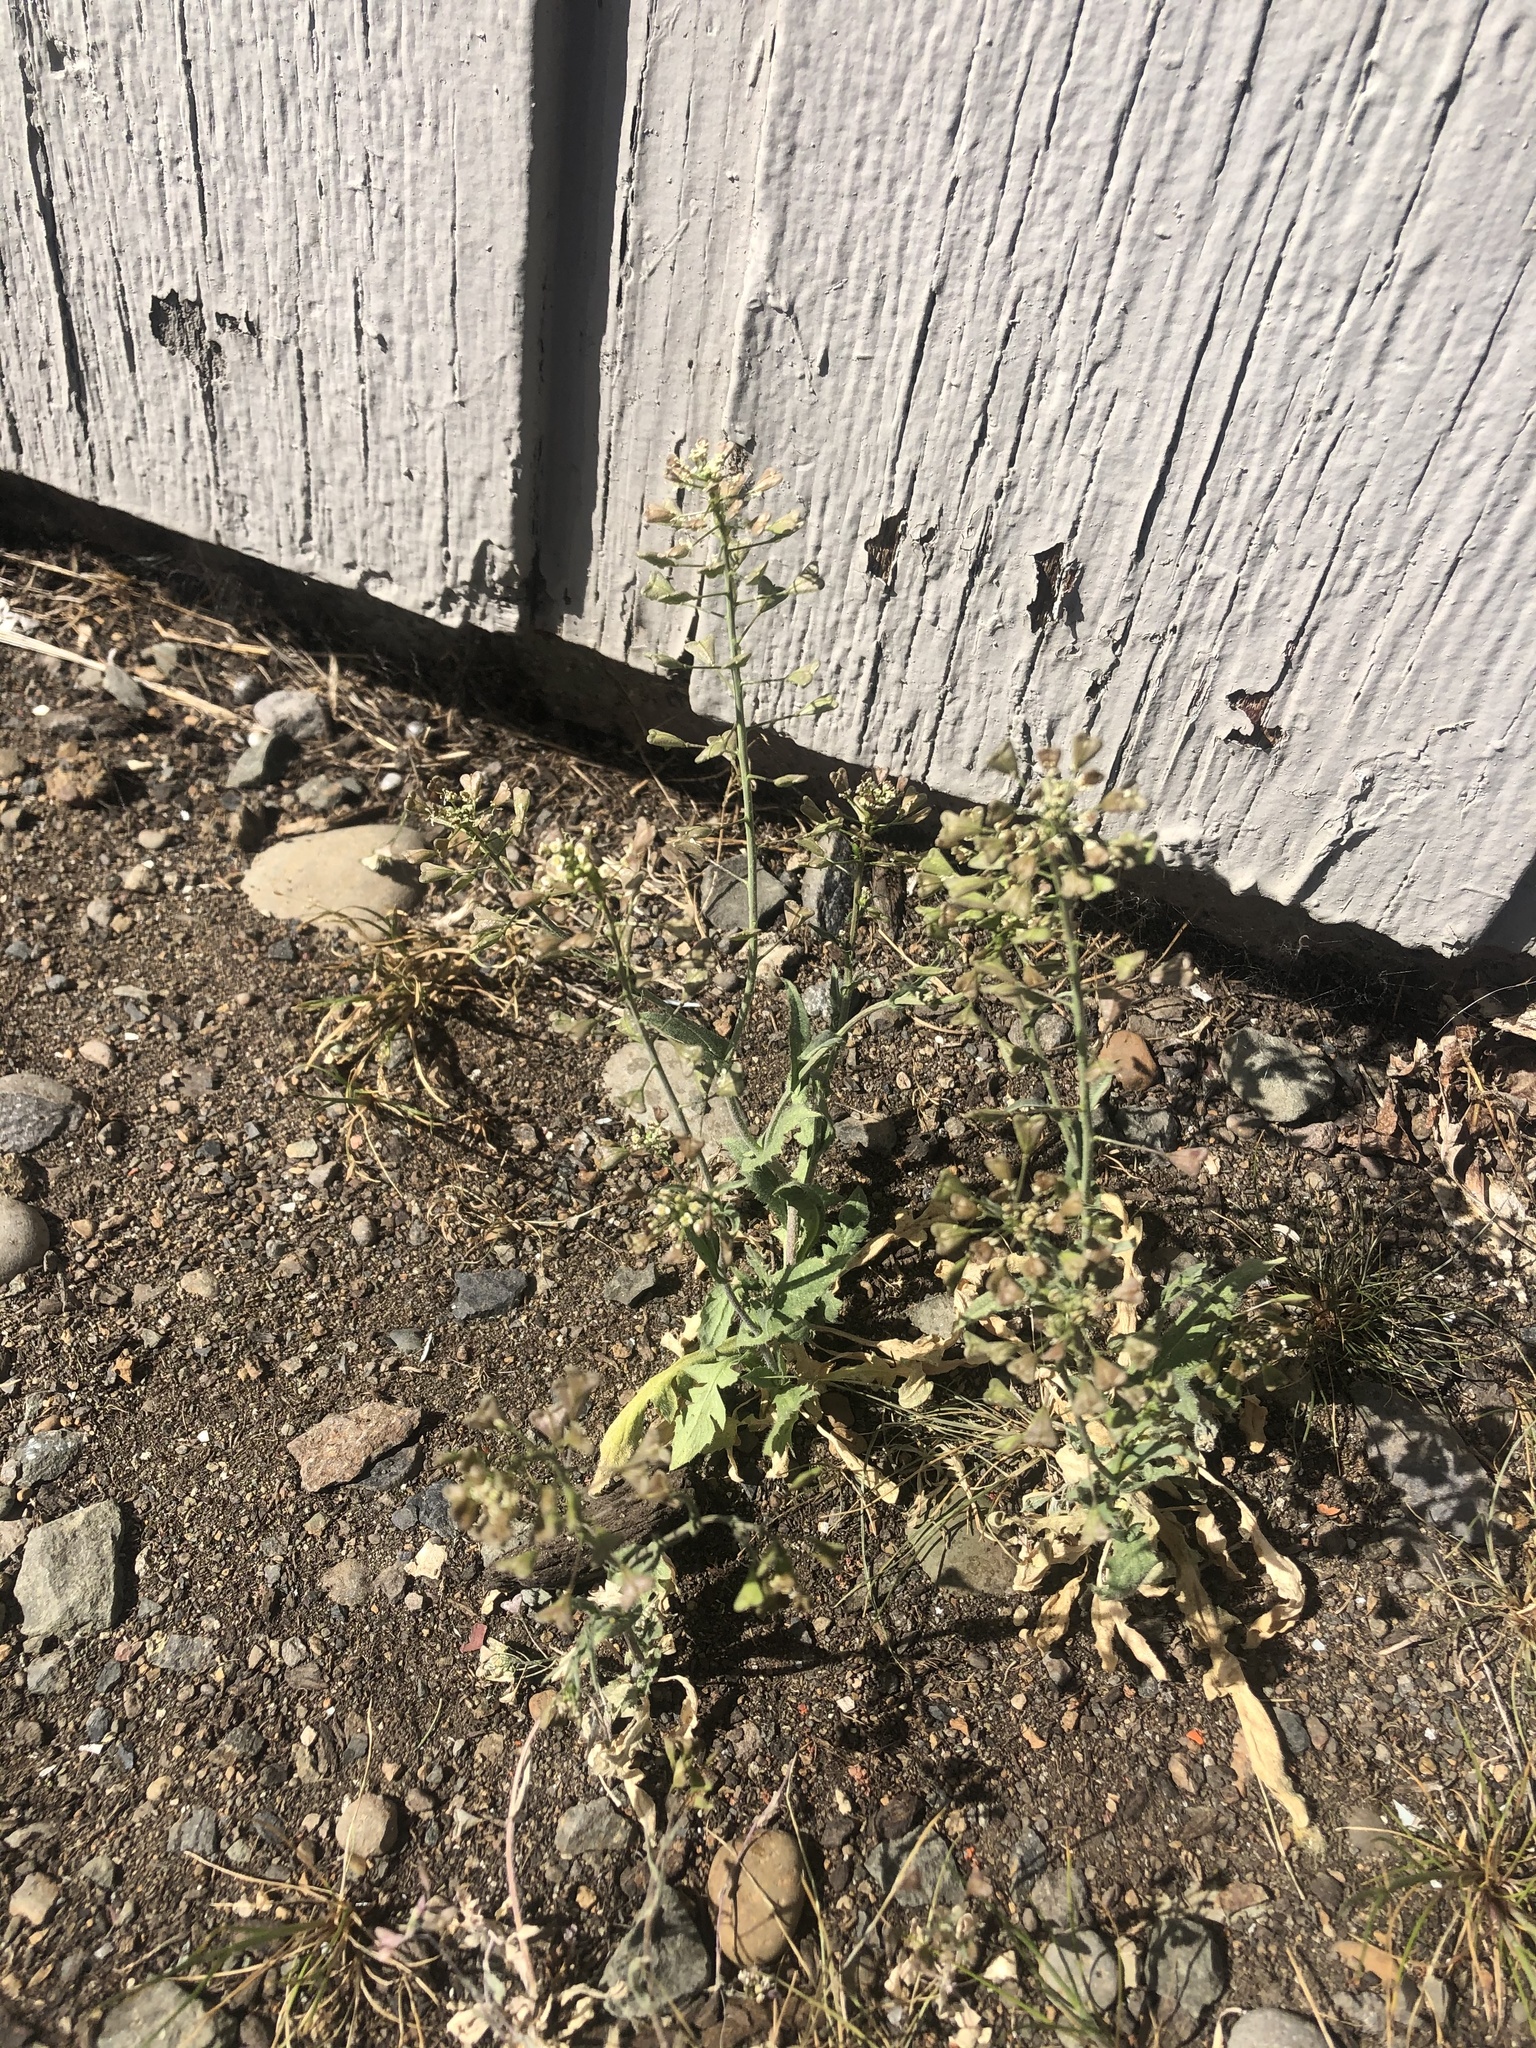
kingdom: Plantae
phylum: Tracheophyta
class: Magnoliopsida
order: Brassicales
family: Brassicaceae
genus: Capsella
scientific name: Capsella bursa-pastoris
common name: Shepherd's purse
